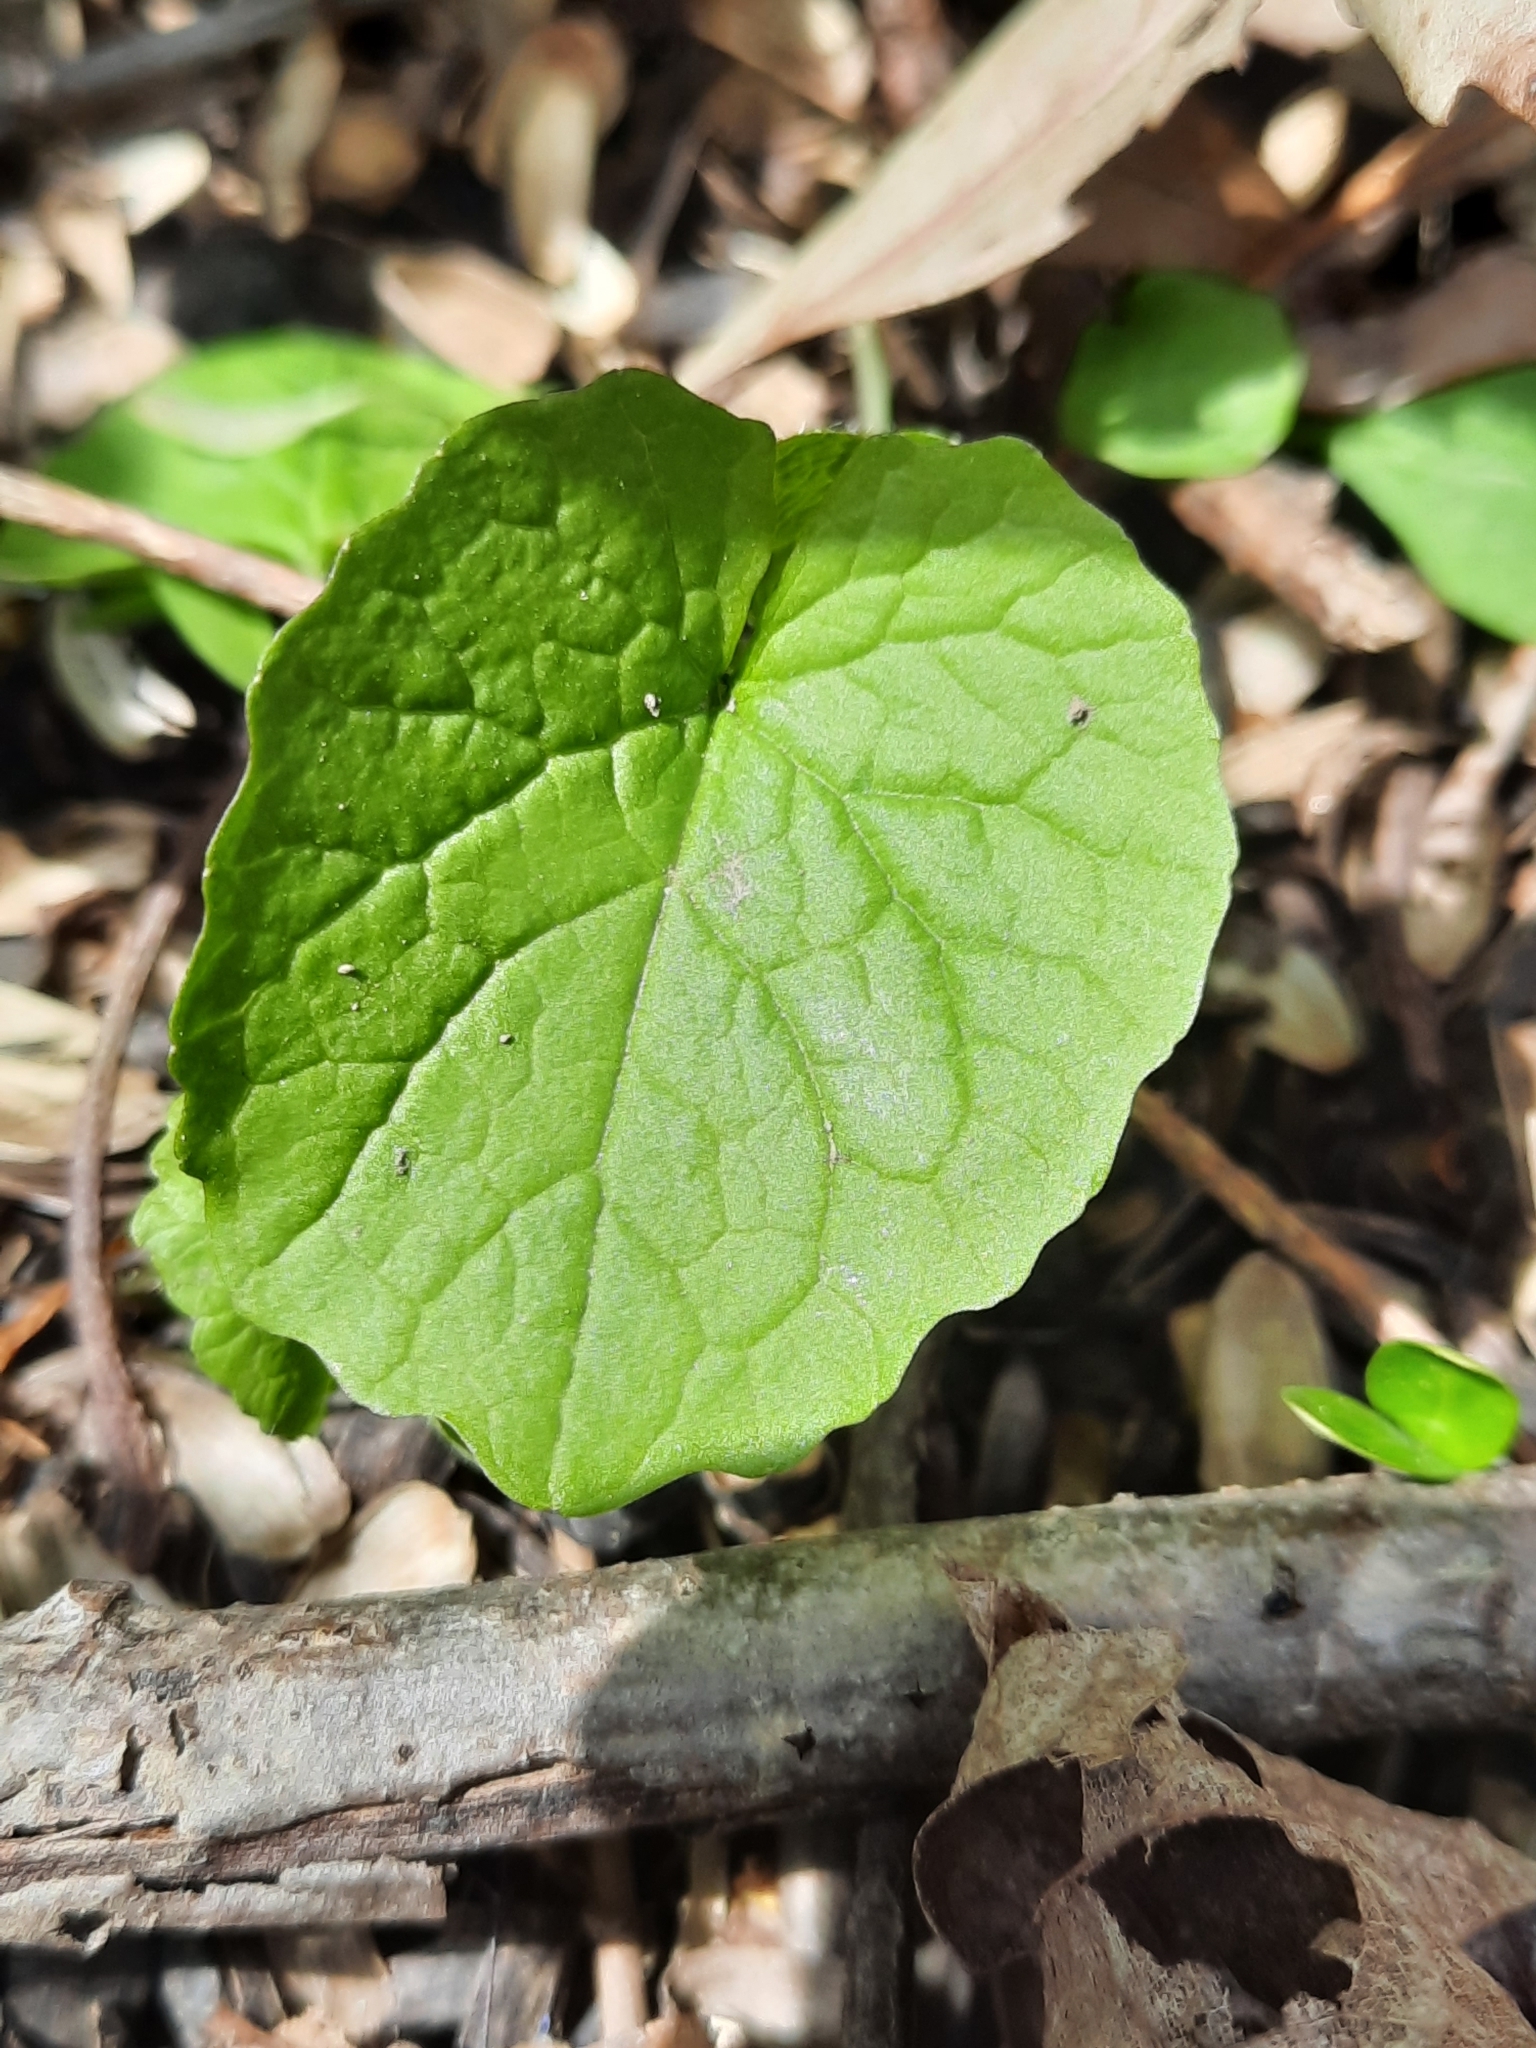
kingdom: Plantae
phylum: Tracheophyta
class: Magnoliopsida
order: Brassicales
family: Brassicaceae
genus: Alliaria
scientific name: Alliaria petiolata
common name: Garlic mustard
